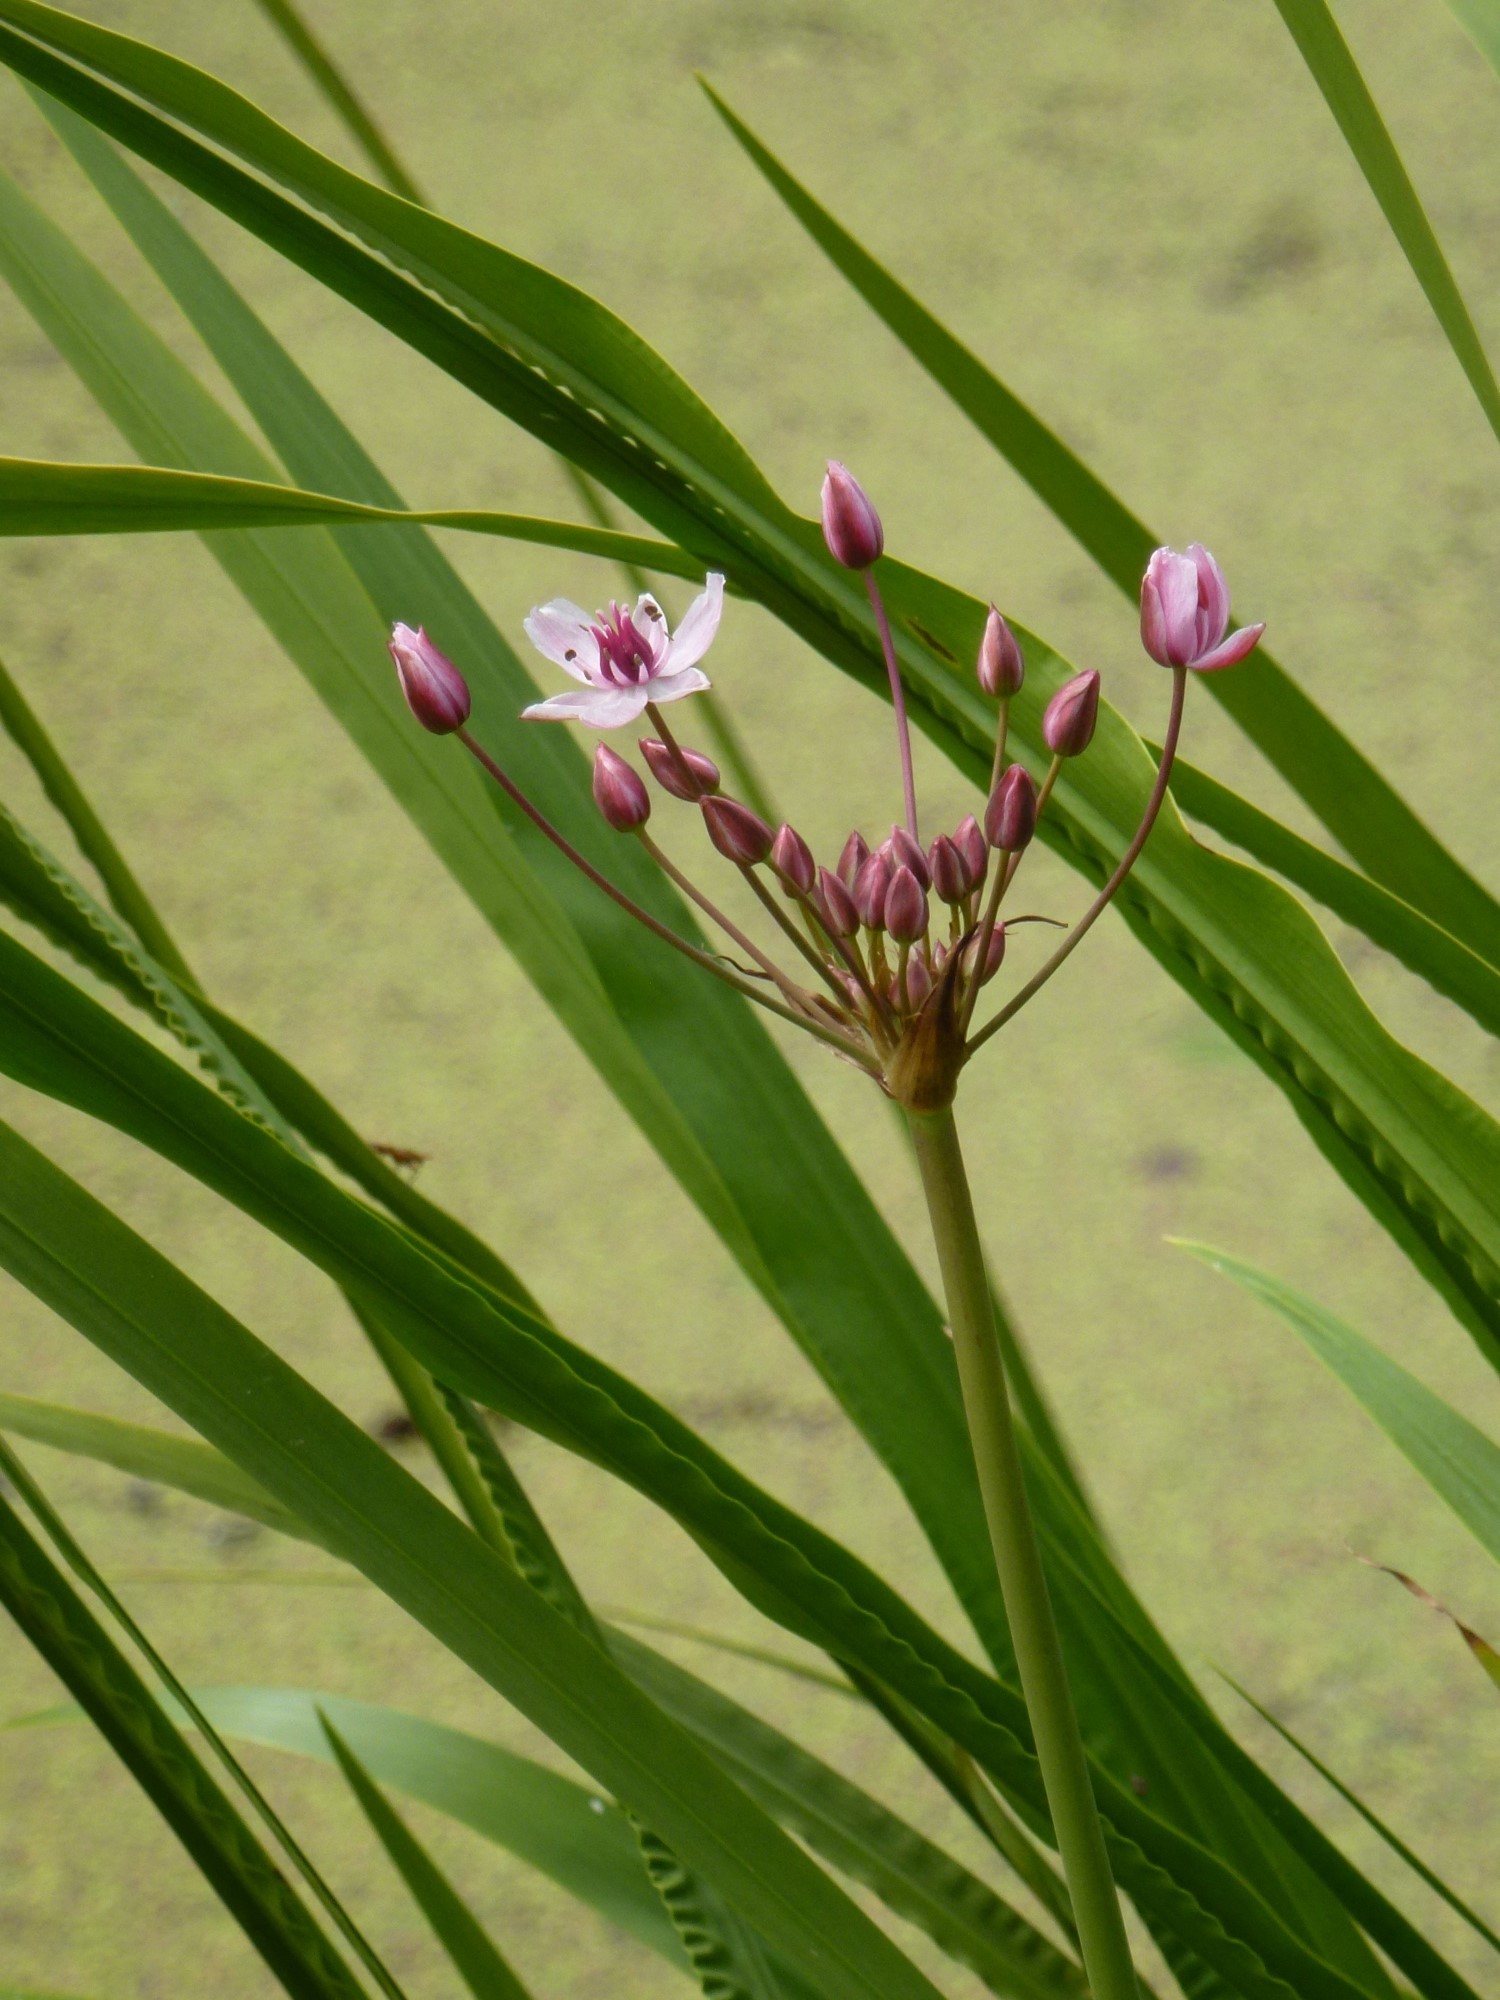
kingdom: Plantae
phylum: Tracheophyta
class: Liliopsida
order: Alismatales
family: Butomaceae
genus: Butomus
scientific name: Butomus umbellatus
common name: Flowering-rush
